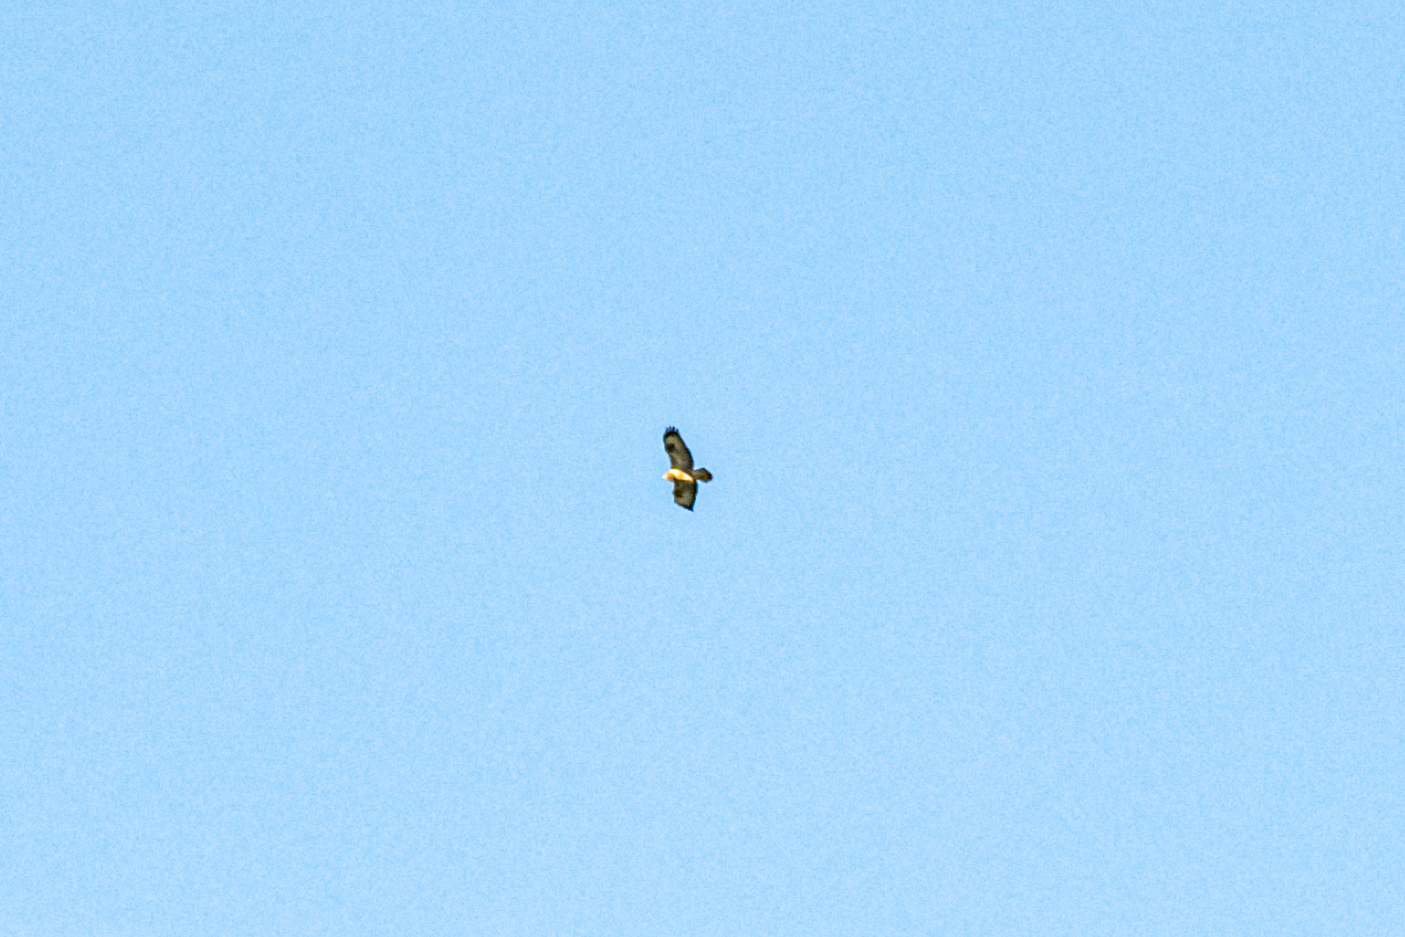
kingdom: Animalia
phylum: Chordata
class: Aves
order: Accipitriformes
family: Accipitridae
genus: Buteo
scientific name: Buteo lagopus
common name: Rough-legged buzzard
